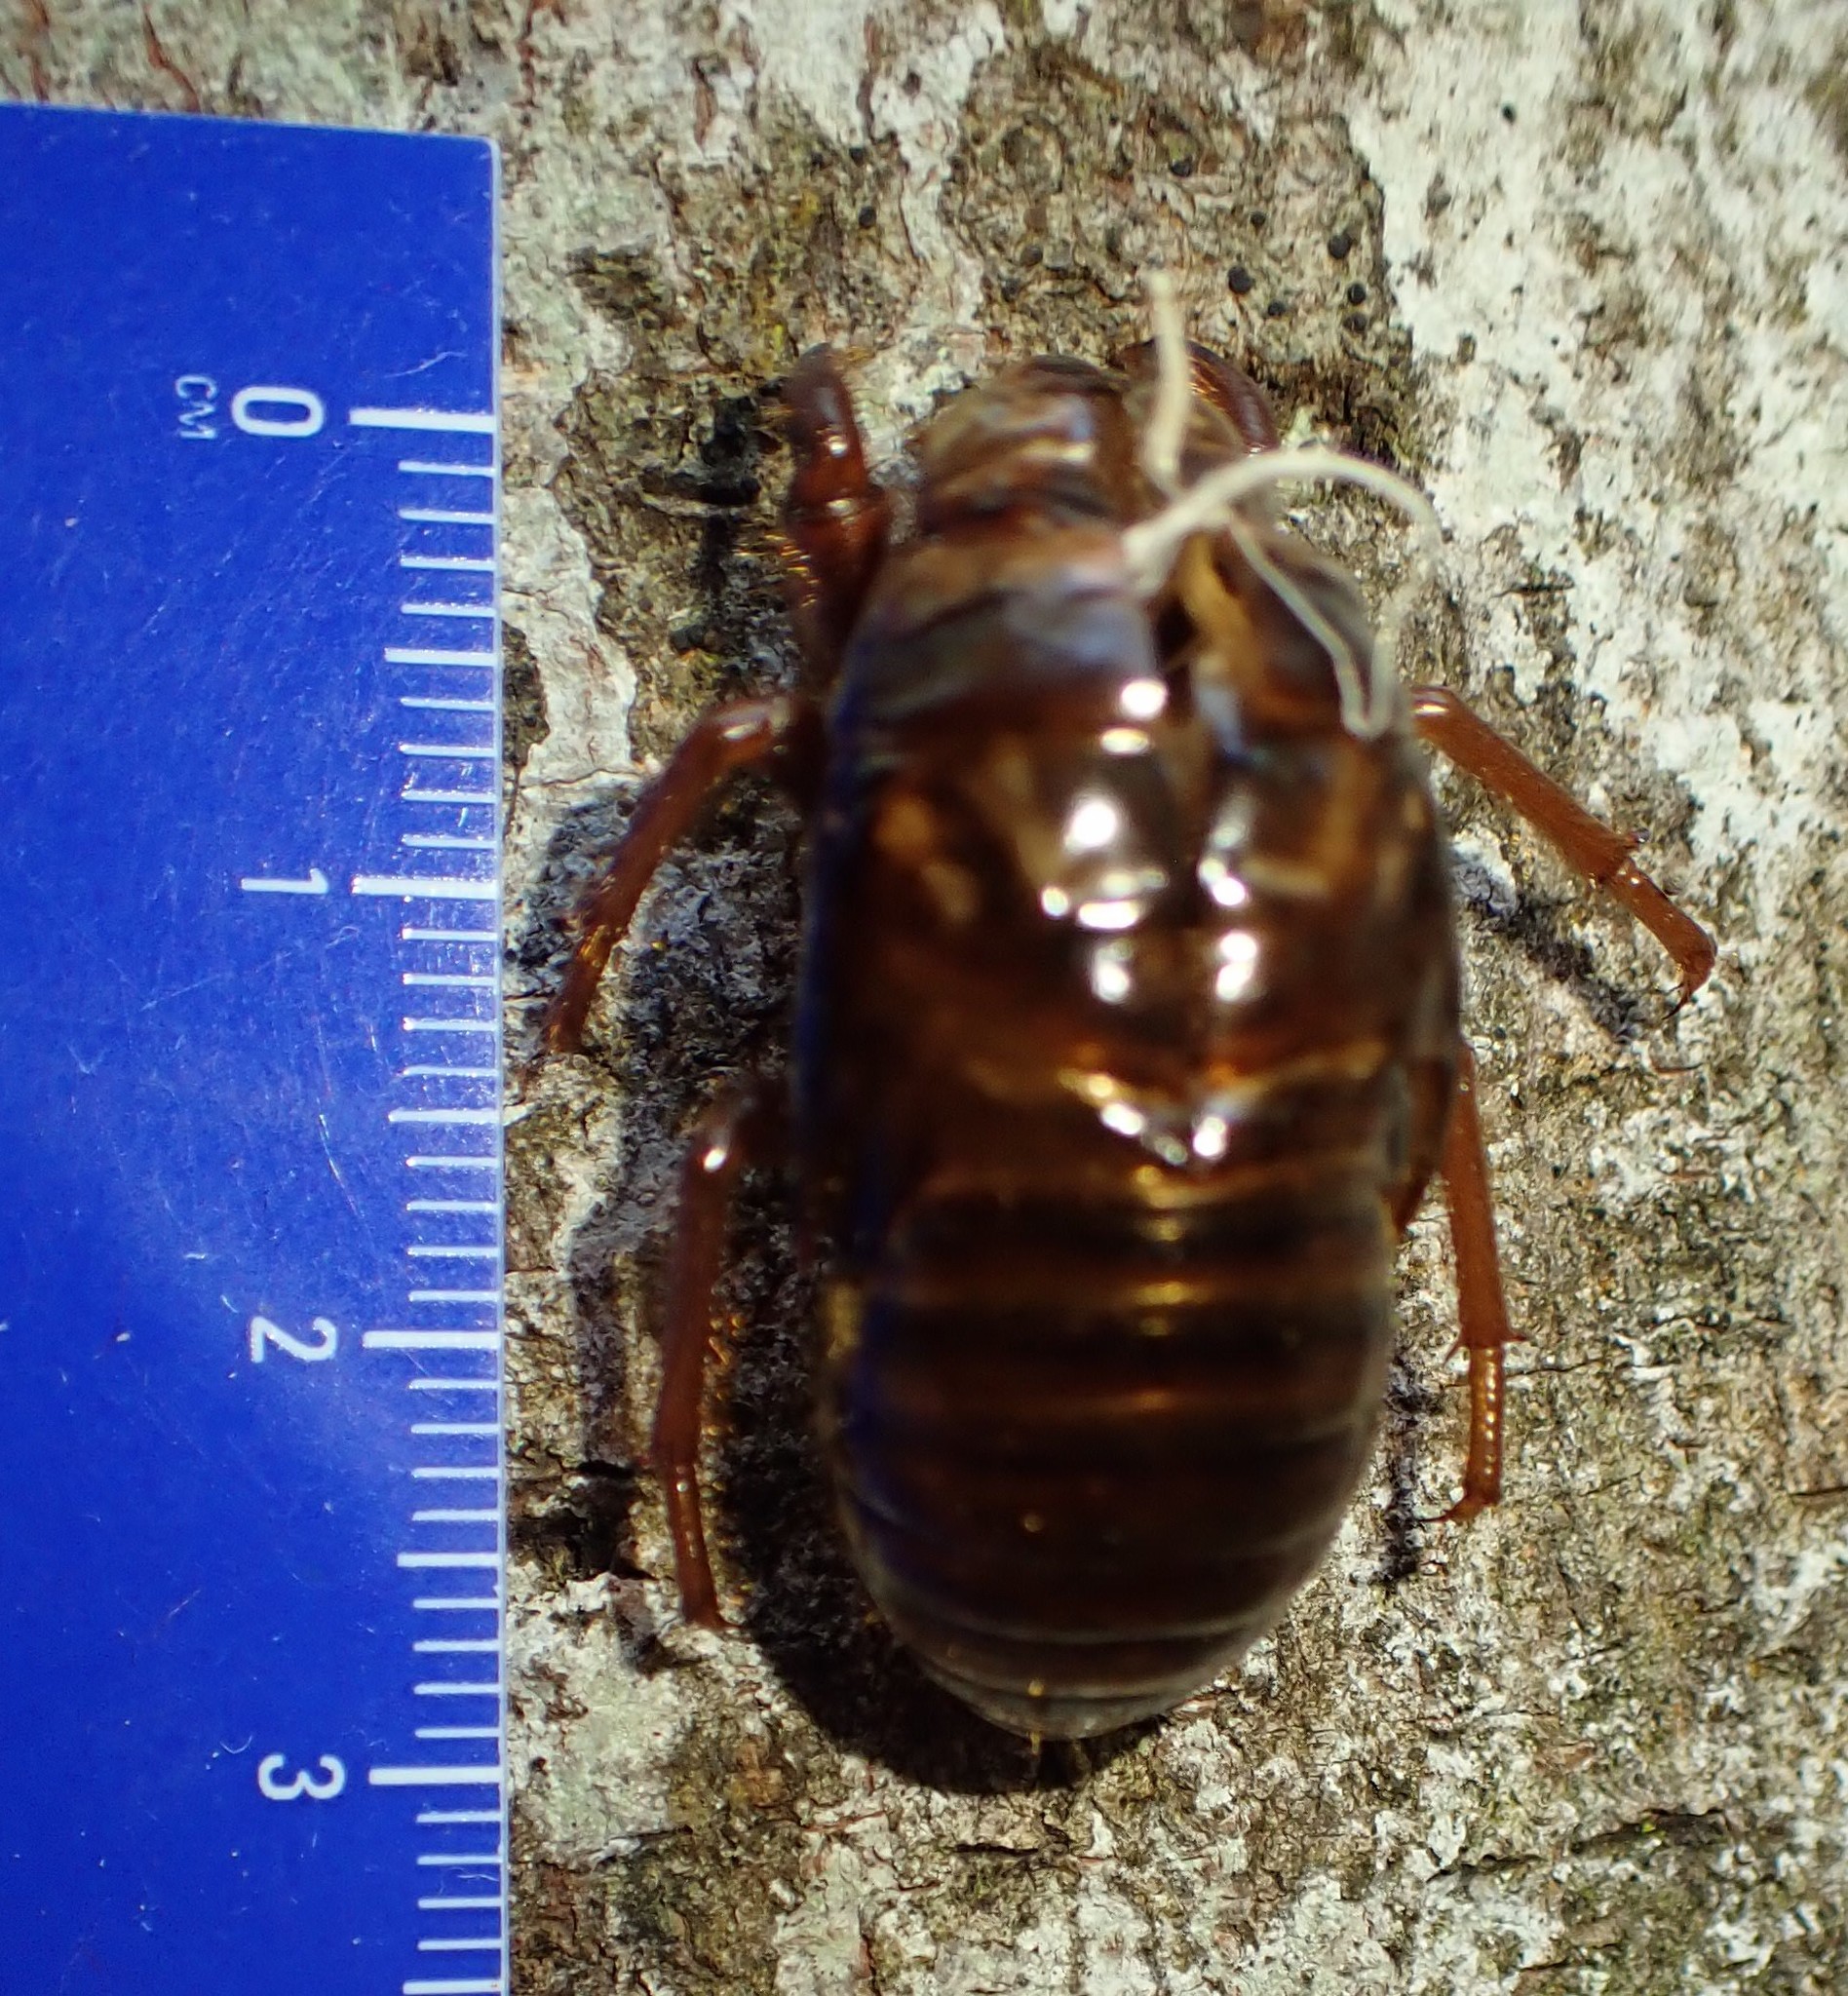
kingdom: Animalia
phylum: Arthropoda
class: Insecta
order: Hemiptera
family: Tettigarctidae
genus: Tettigarcta
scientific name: Tettigarcta tomentosa
